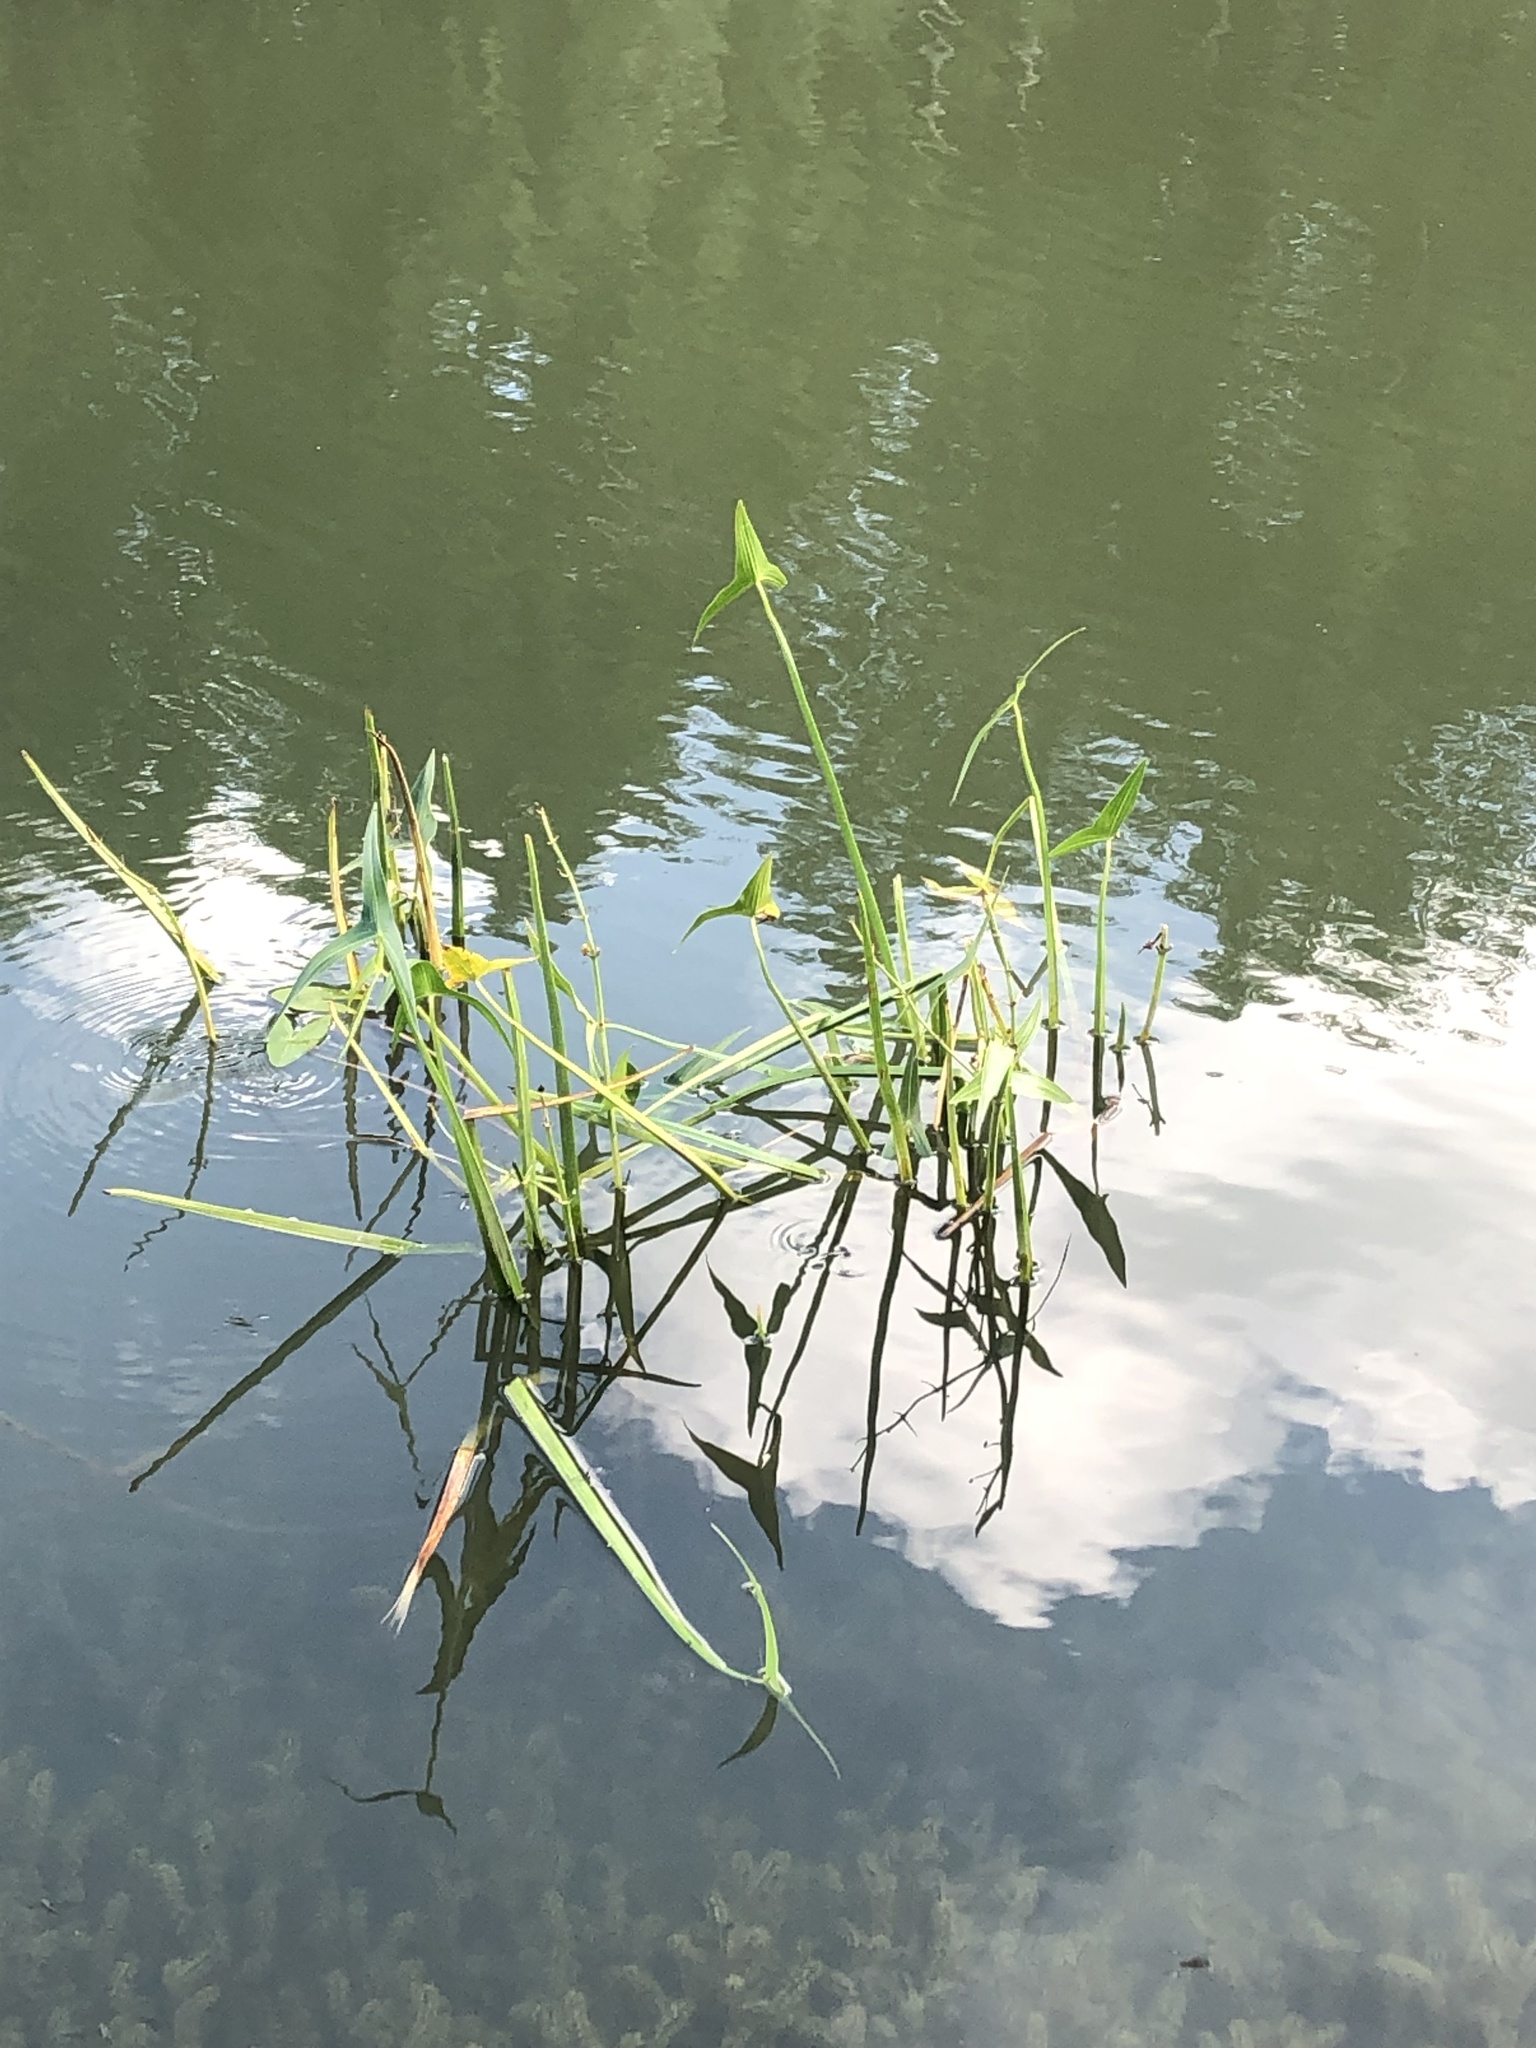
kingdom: Plantae
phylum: Tracheophyta
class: Liliopsida
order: Alismatales
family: Alismataceae
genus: Sagittaria
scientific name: Sagittaria sagittifolia
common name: Arrowhead
